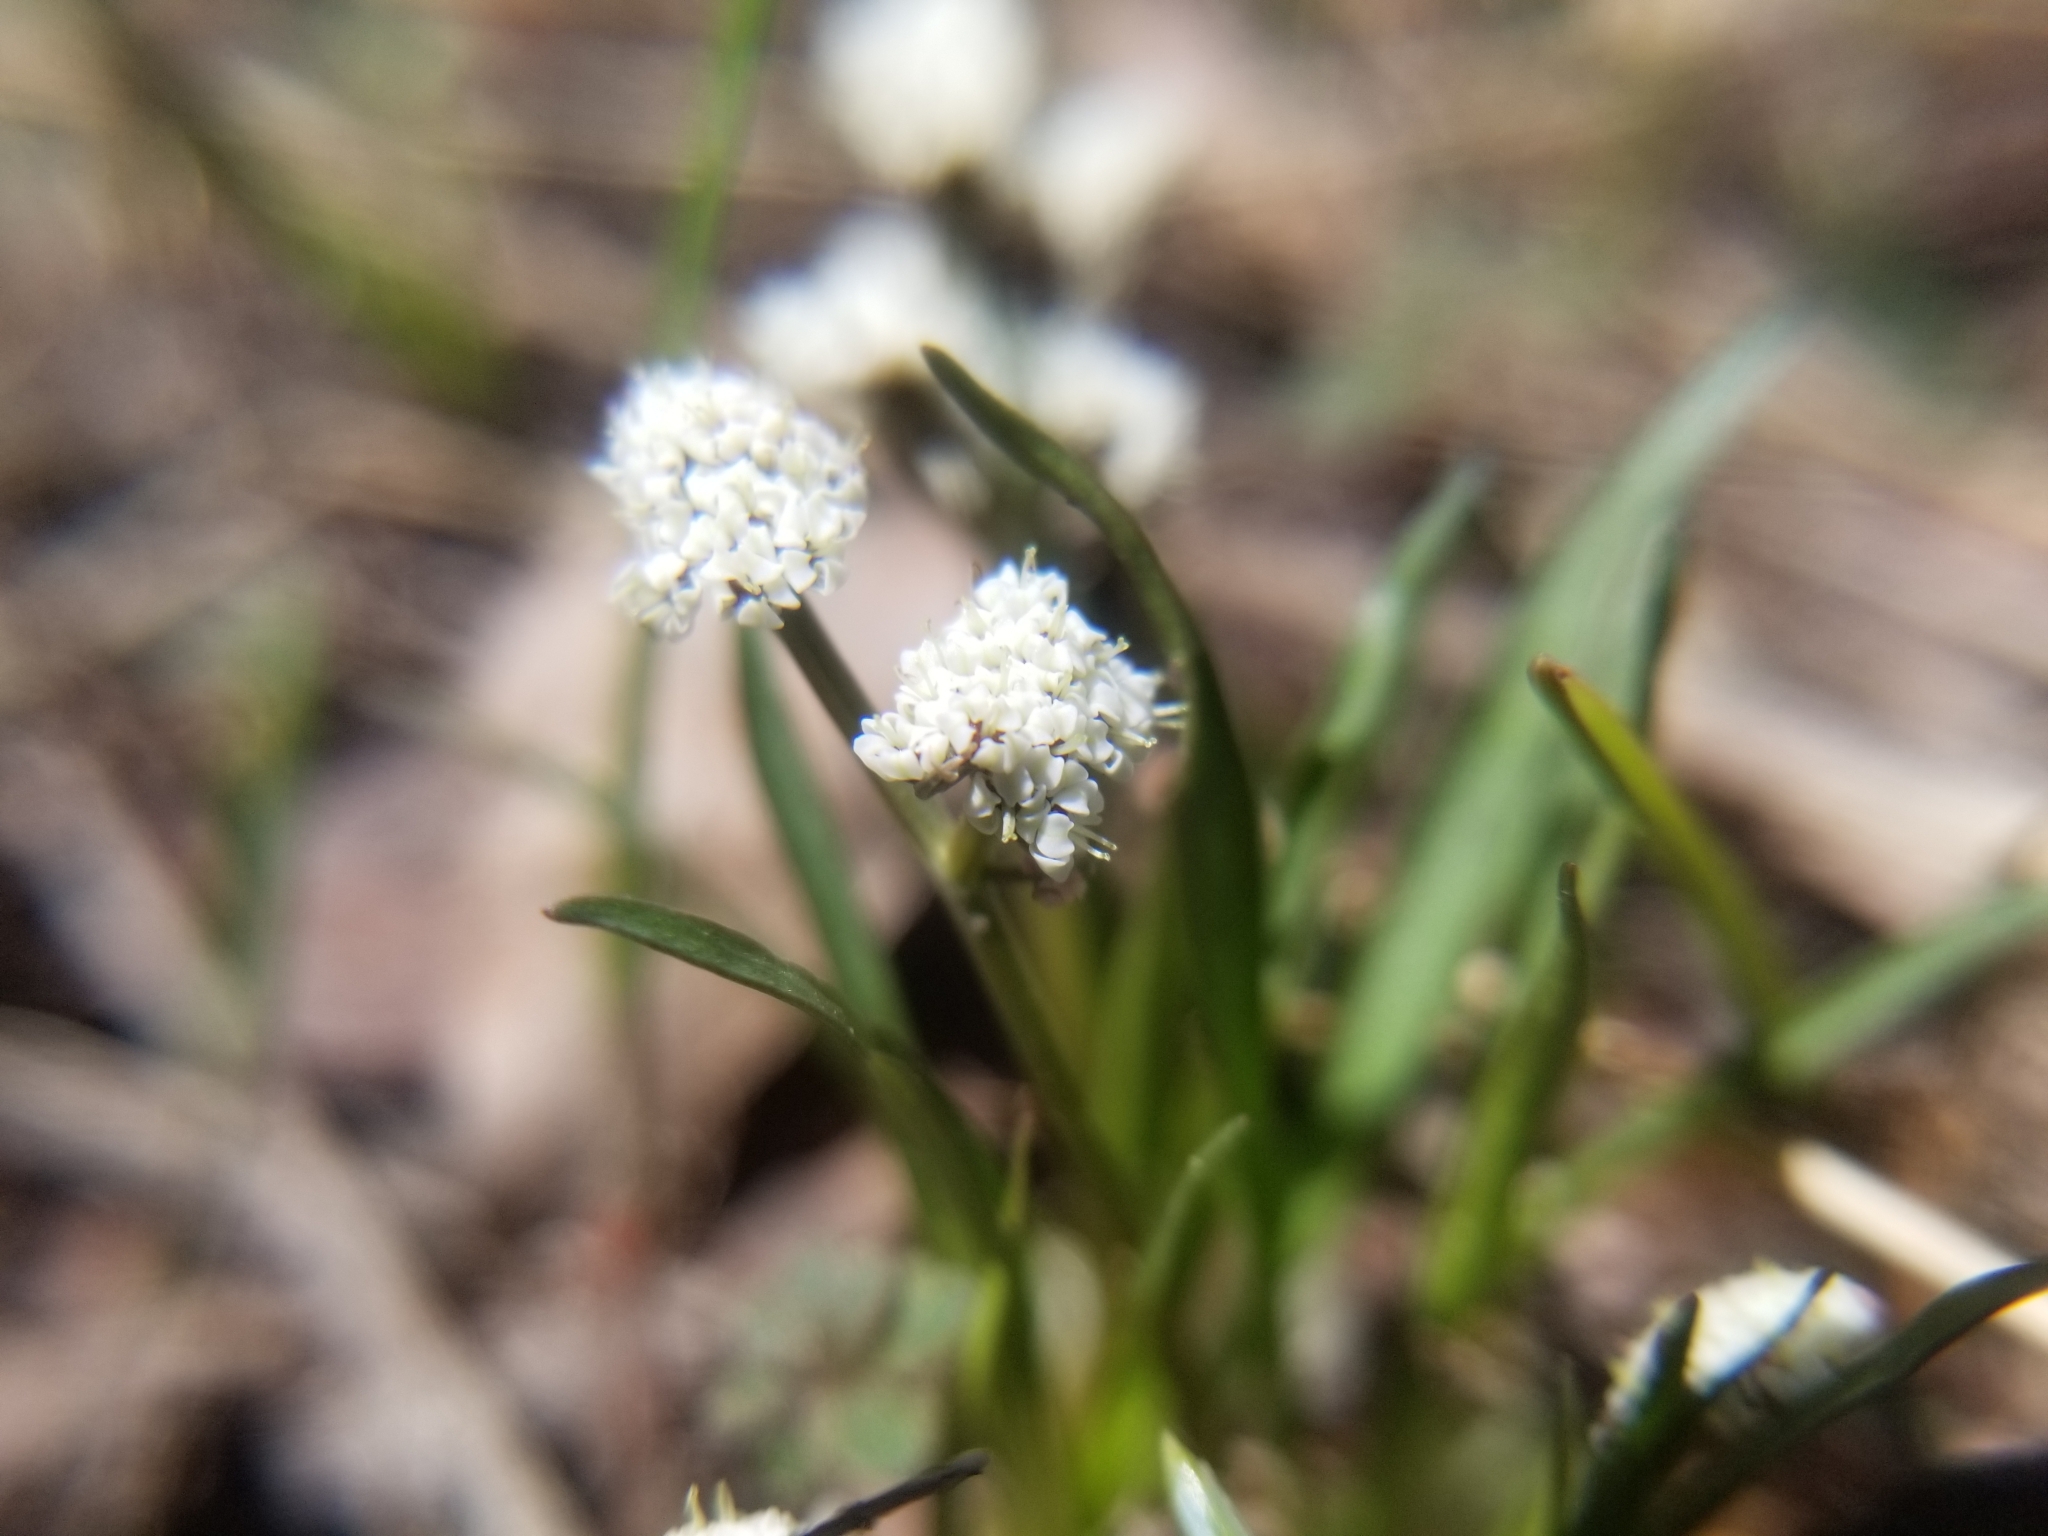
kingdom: Plantae
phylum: Tracheophyta
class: Magnoliopsida
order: Apiales
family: Apiaceae
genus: Lomatium
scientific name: Lomatium linearifolium
